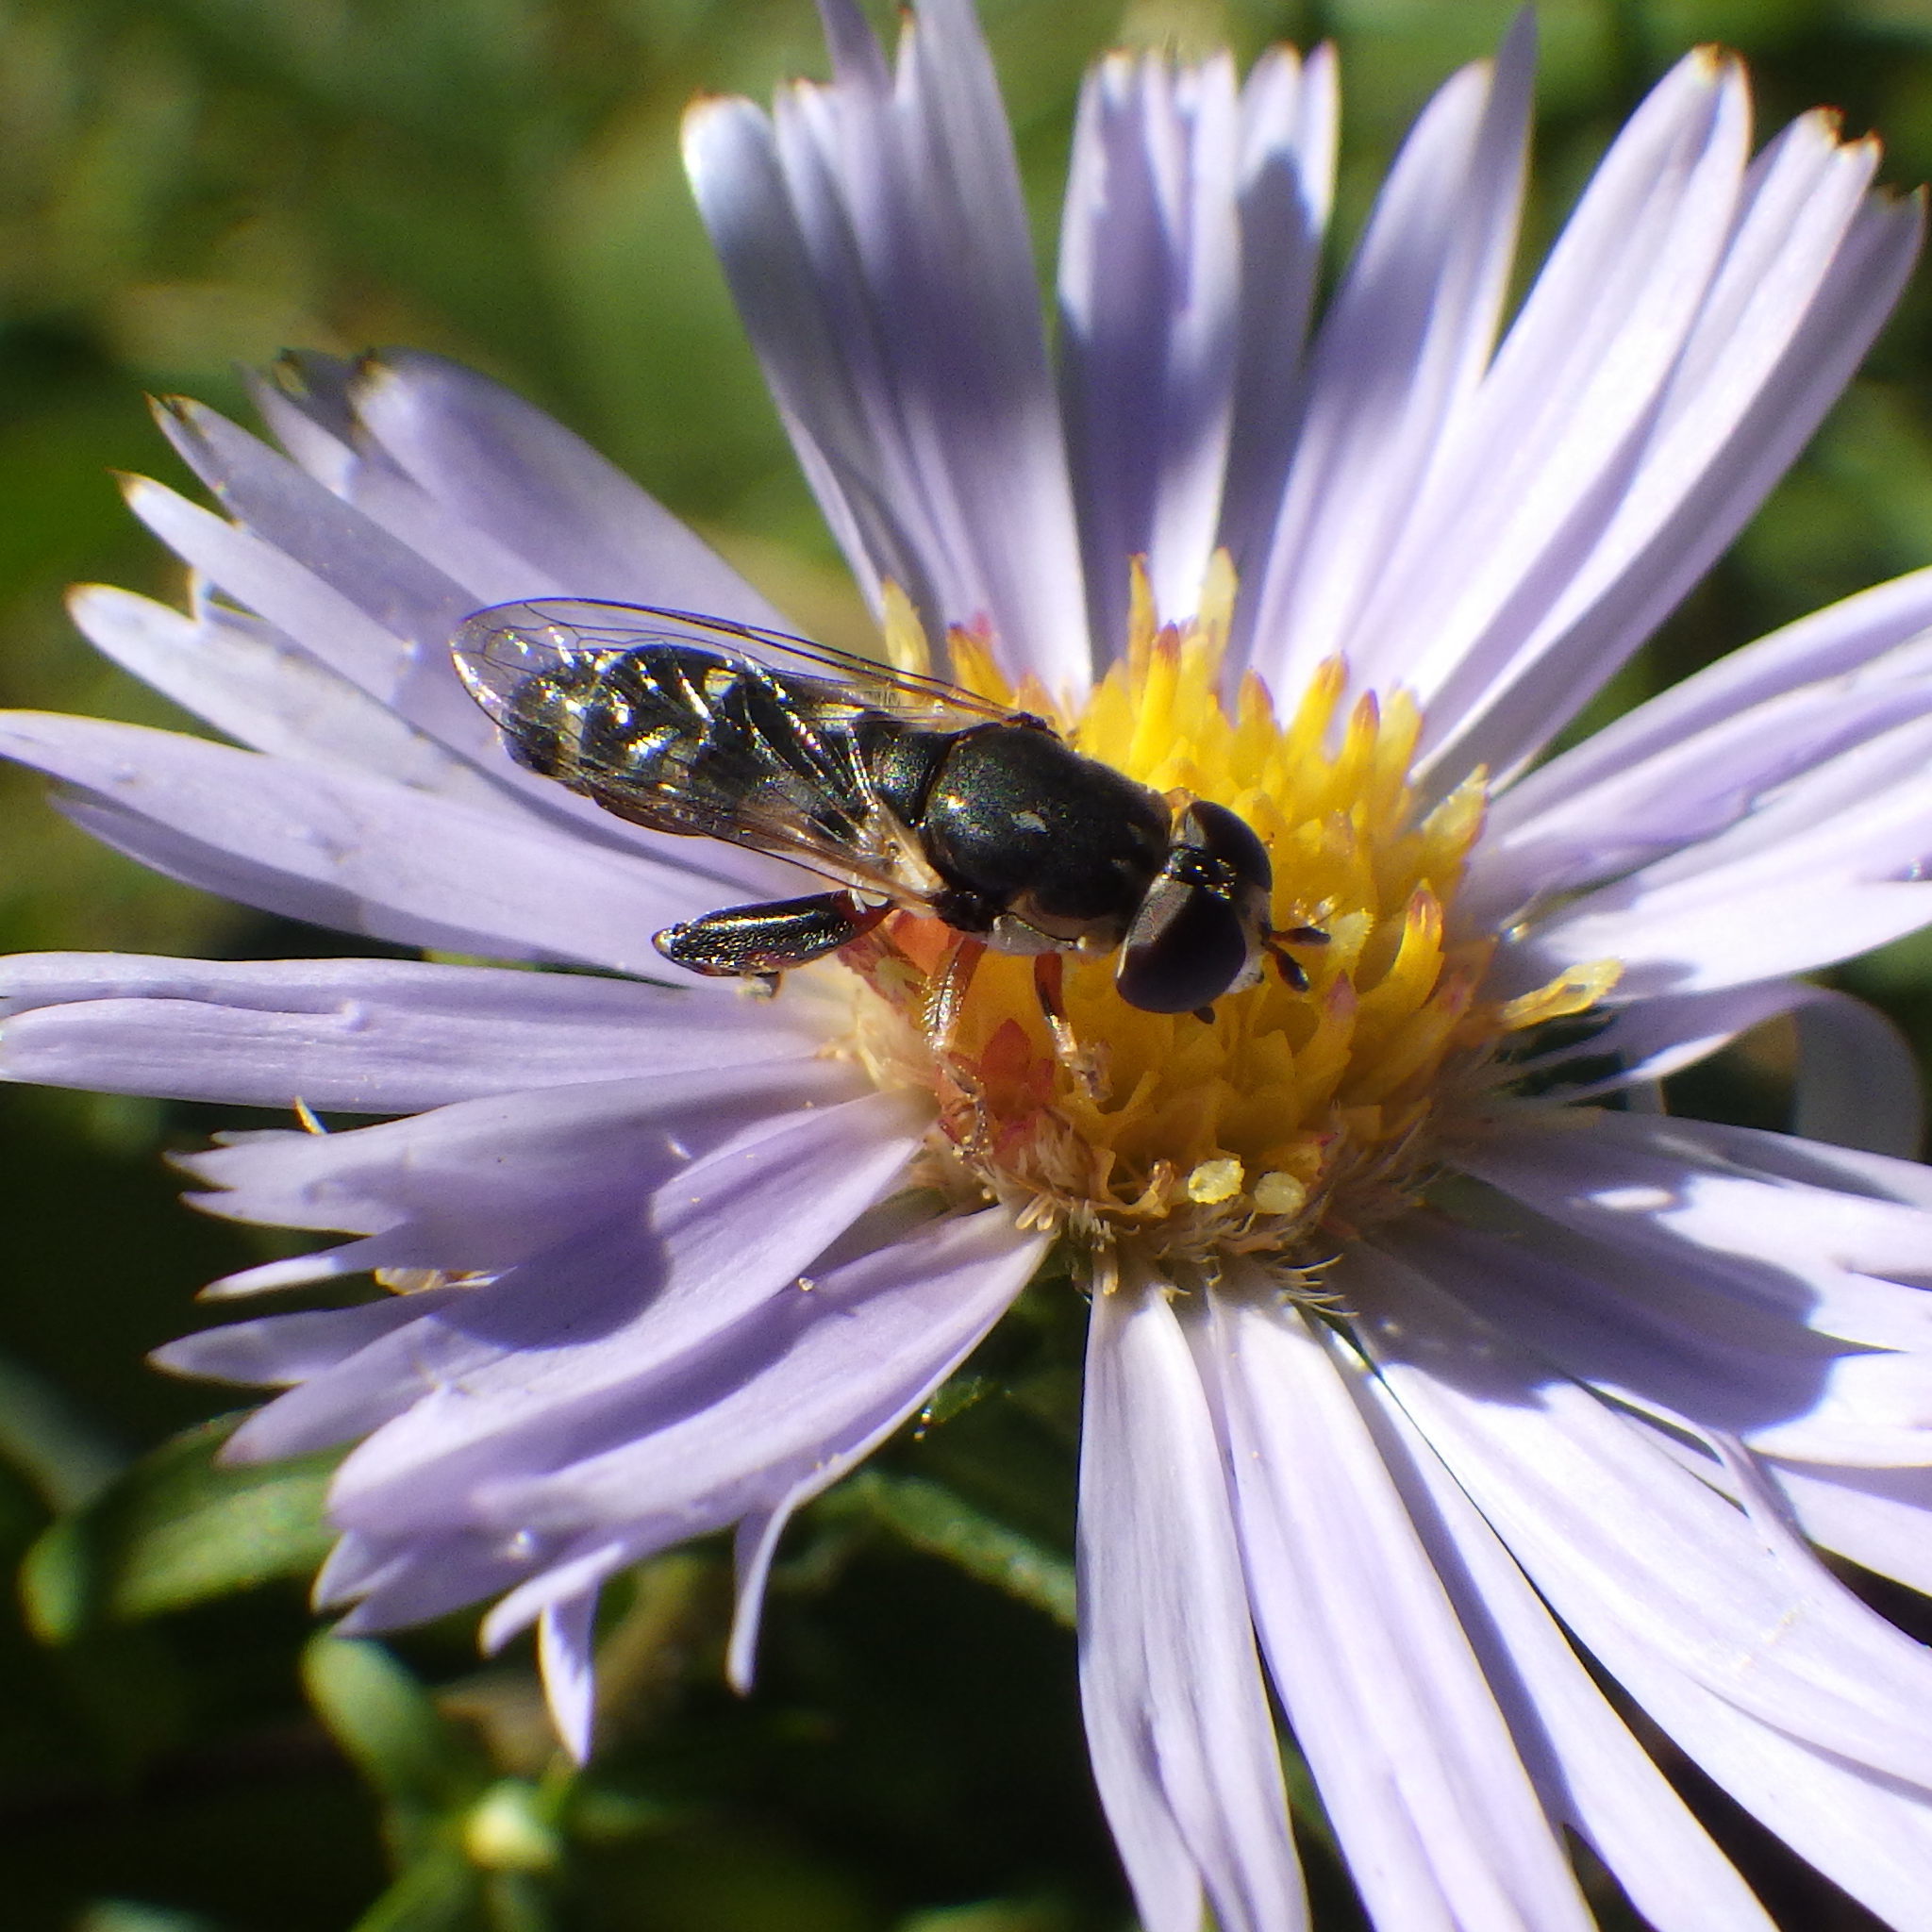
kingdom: Animalia
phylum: Arthropoda
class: Insecta
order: Diptera
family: Syrphidae
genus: Syritta
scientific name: Syritta pipiens
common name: Hover fly
